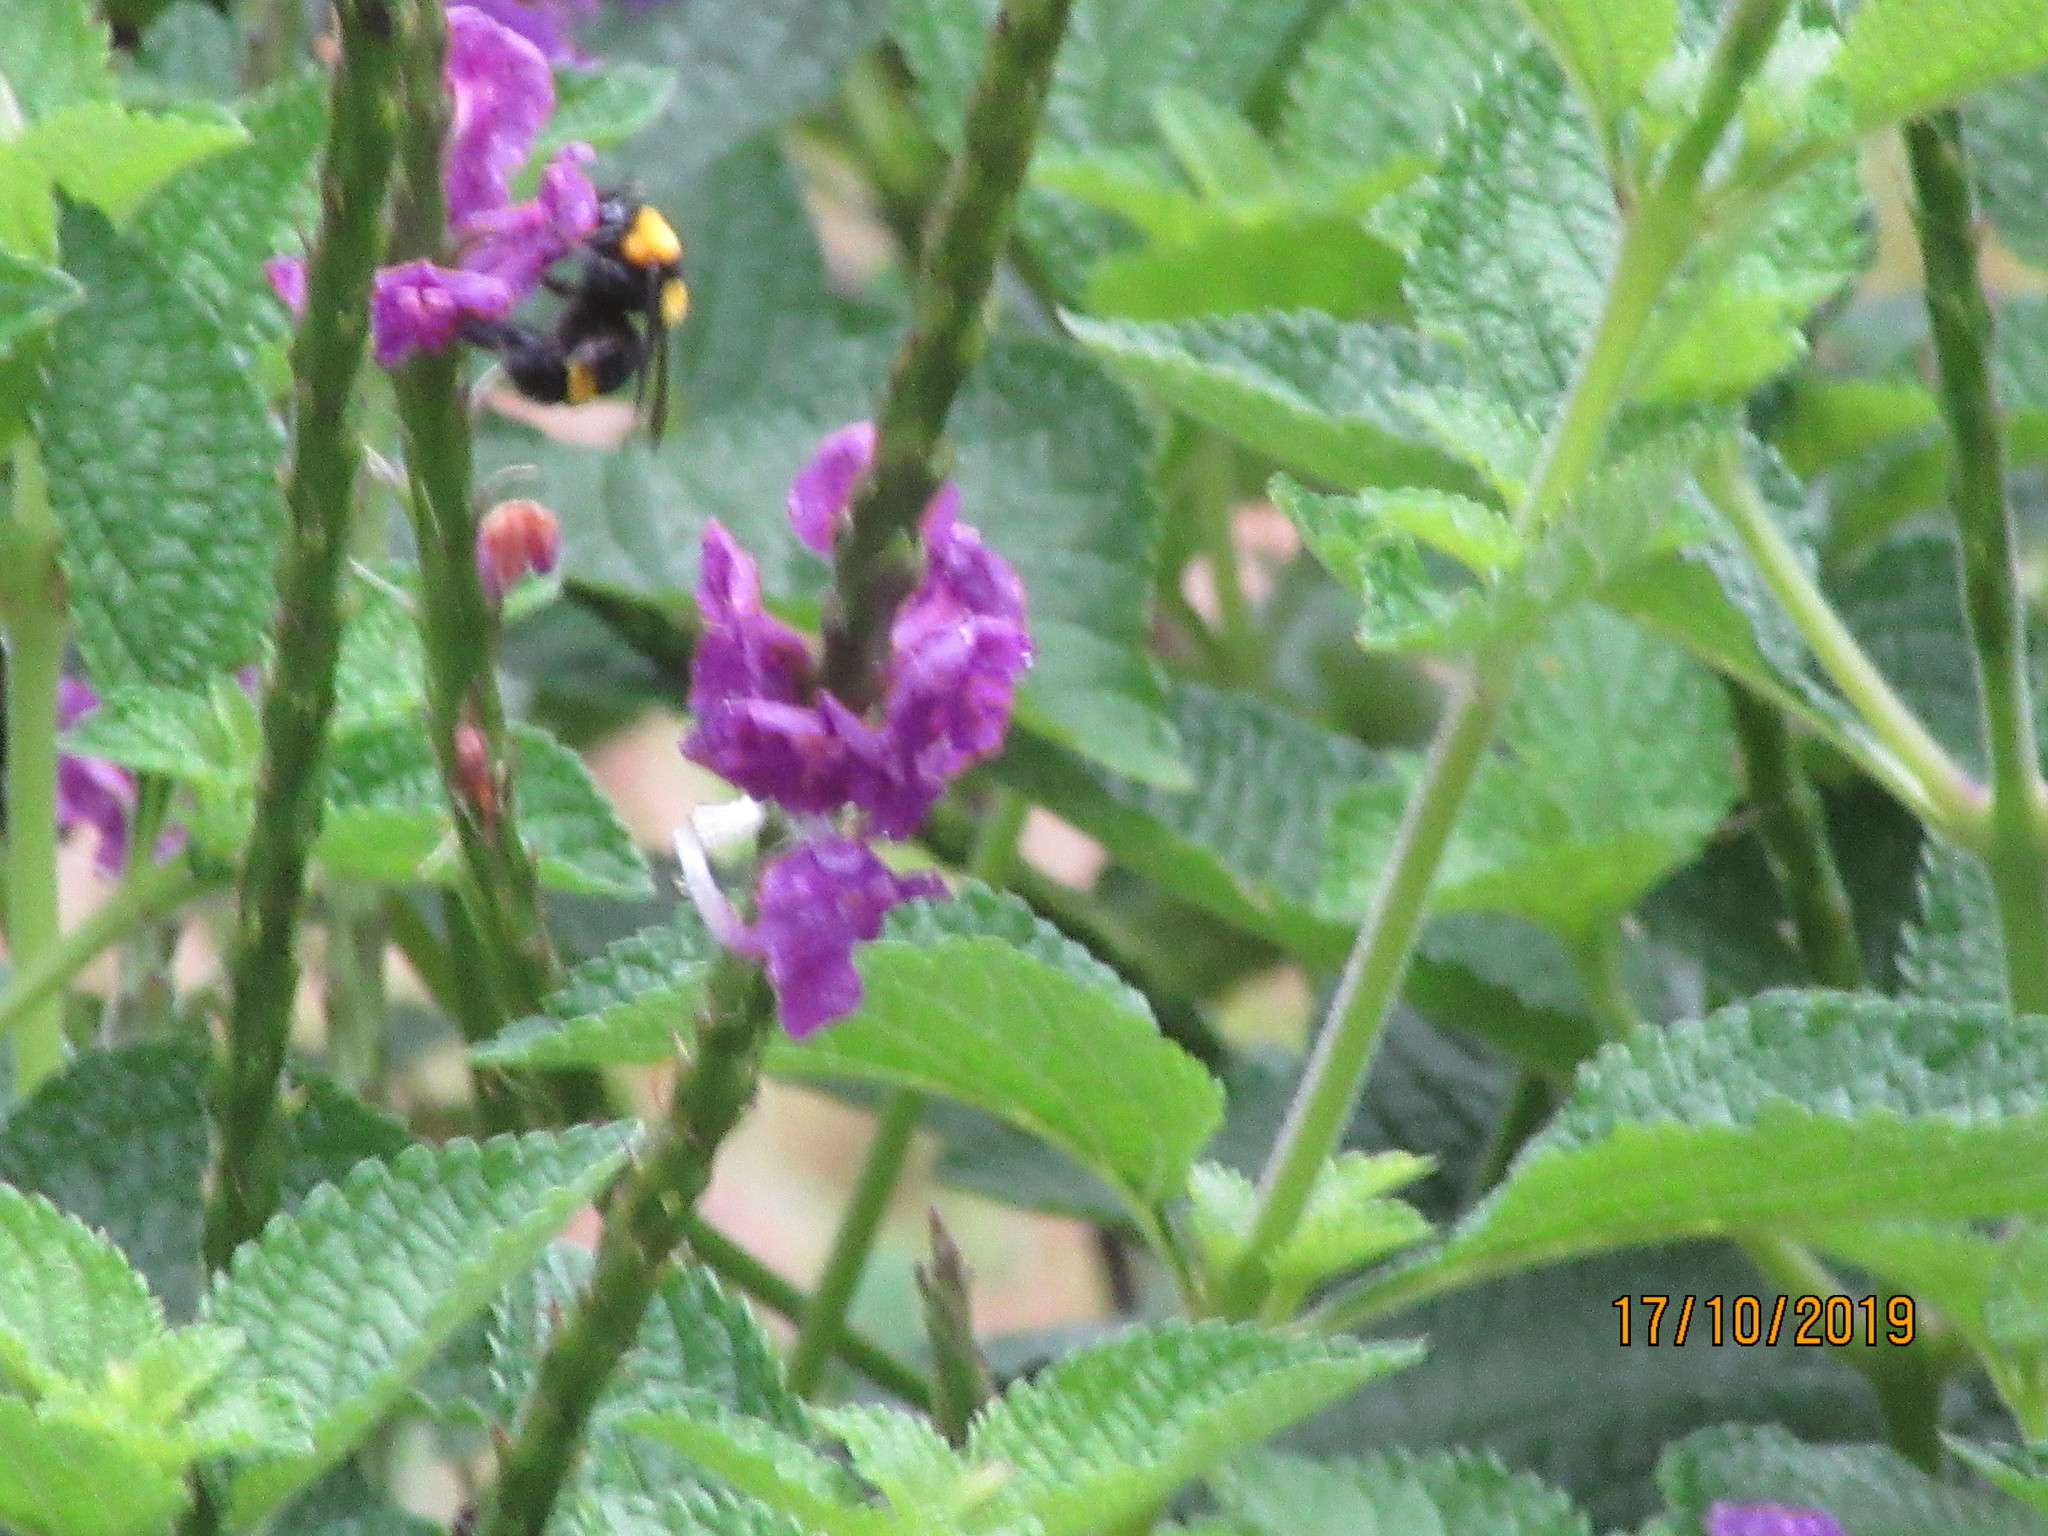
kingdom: Animalia
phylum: Arthropoda
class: Insecta
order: Hymenoptera
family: Apidae
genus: Bombus
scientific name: Bombus transversalis
